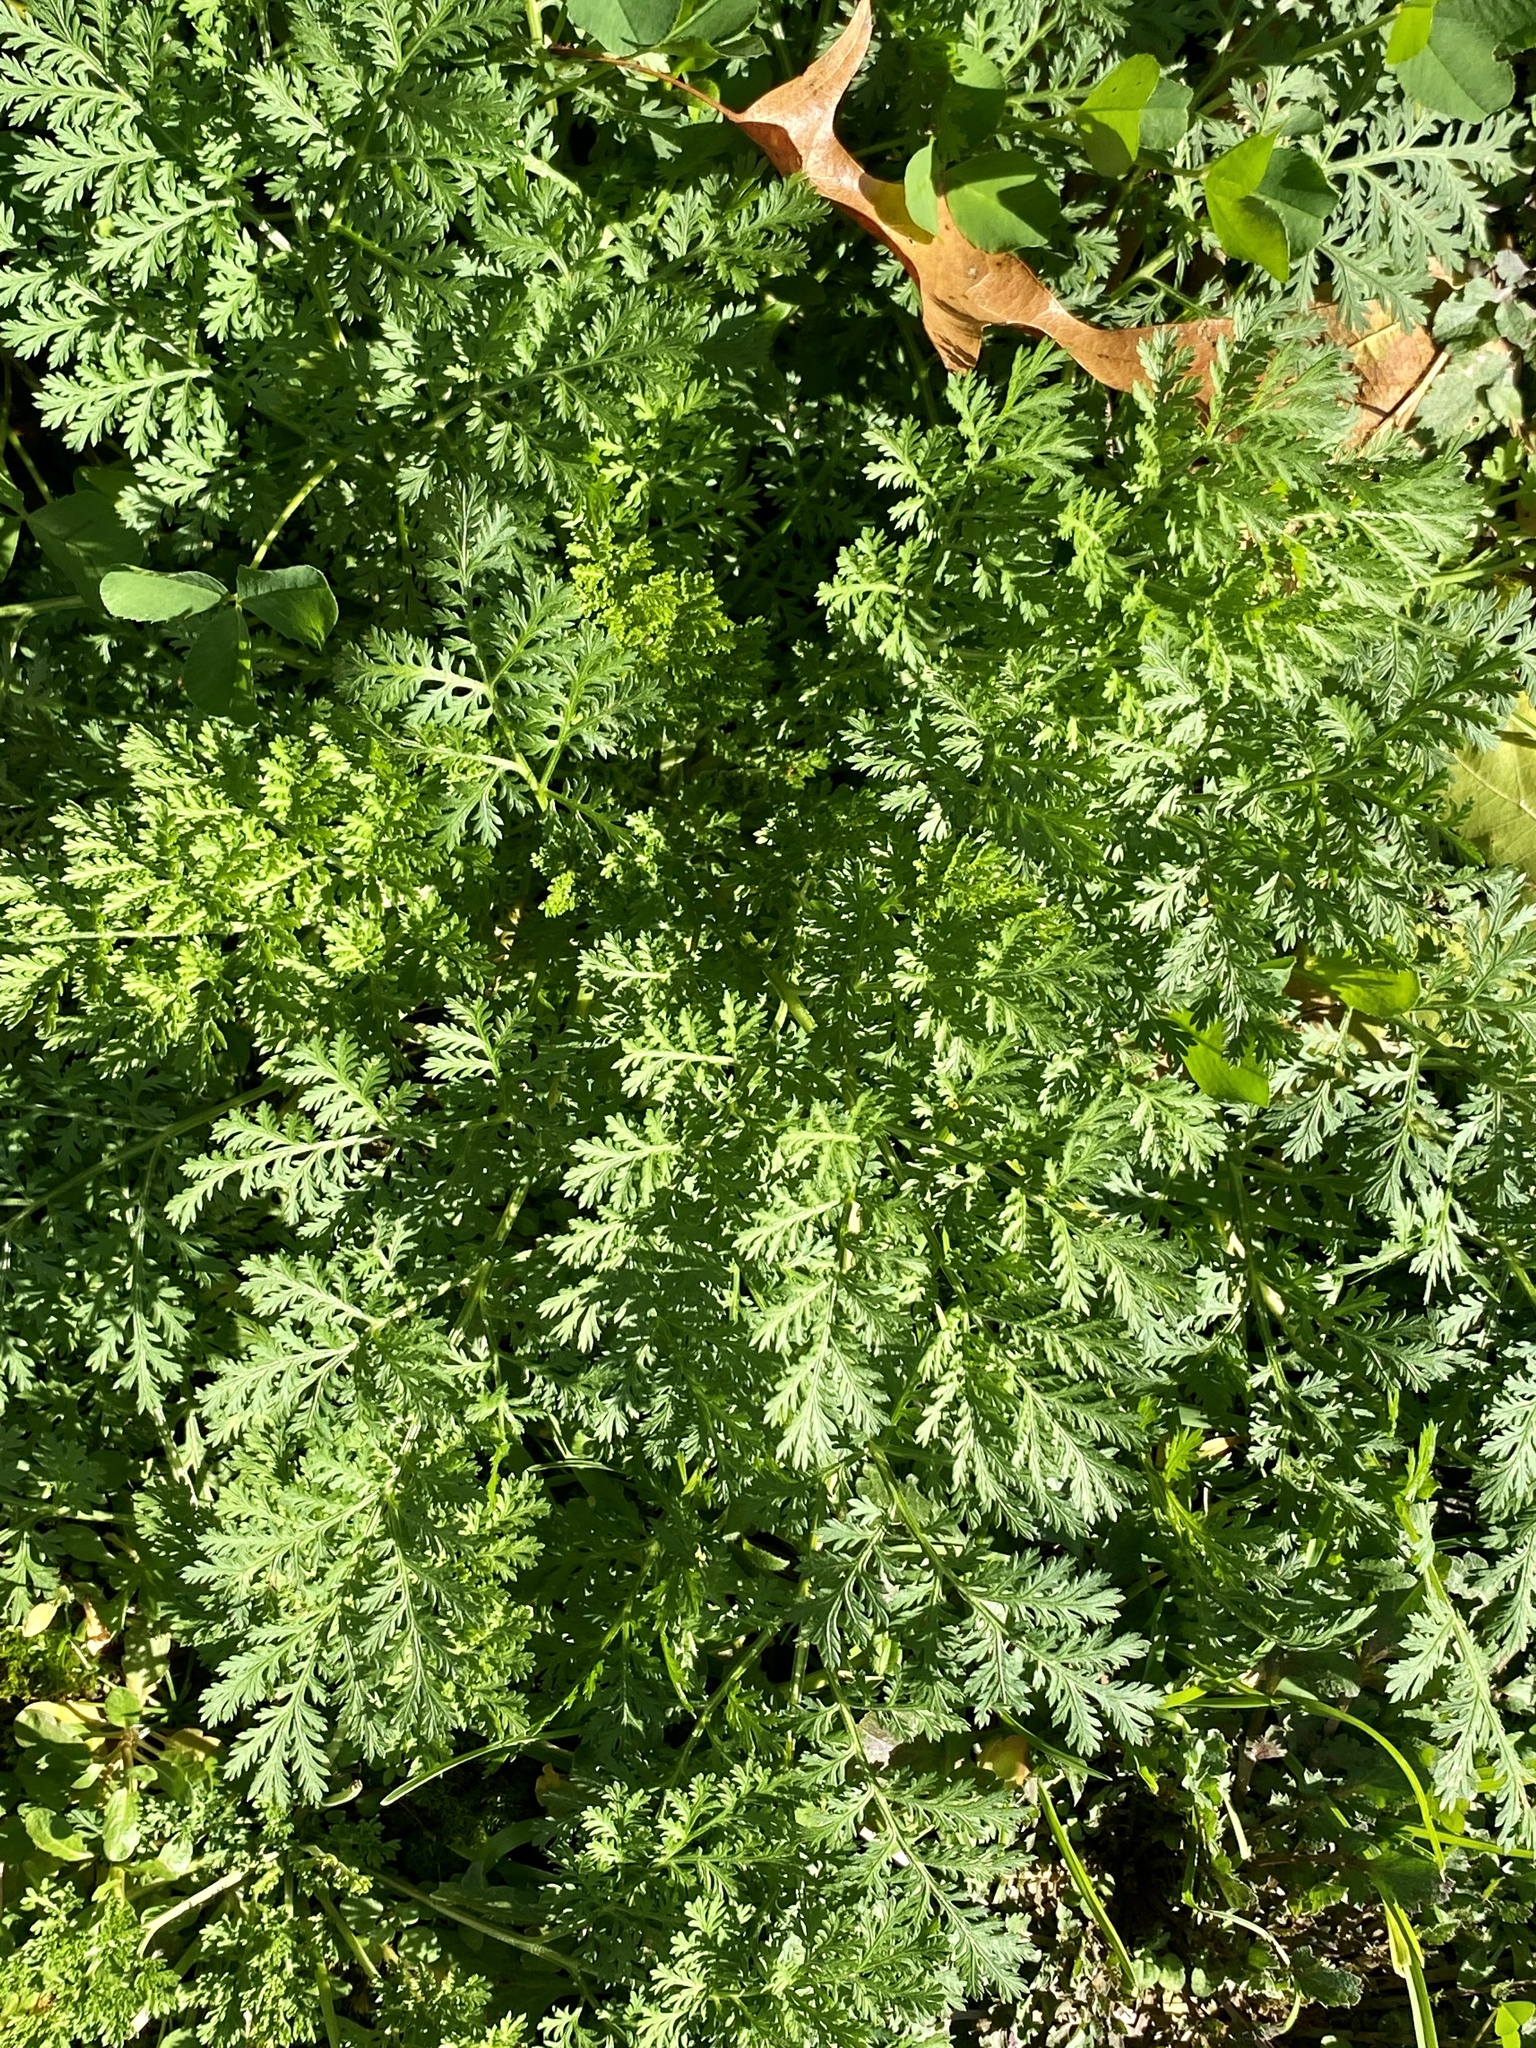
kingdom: Plantae
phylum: Tracheophyta
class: Magnoliopsida
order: Asterales
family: Asteraceae
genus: Artemisia
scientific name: Artemisia annua
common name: Sweet sagewort
